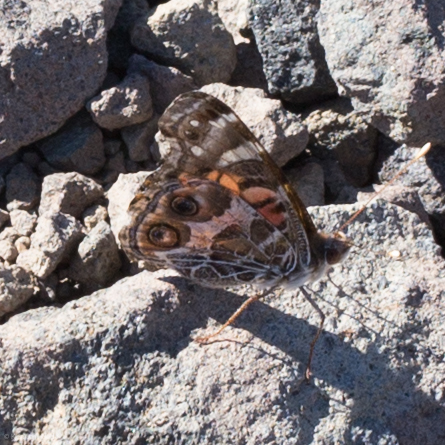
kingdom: Animalia
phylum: Arthropoda
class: Insecta
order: Lepidoptera
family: Nymphalidae
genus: Vanessa
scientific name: Vanessa virginiensis
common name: American lady
